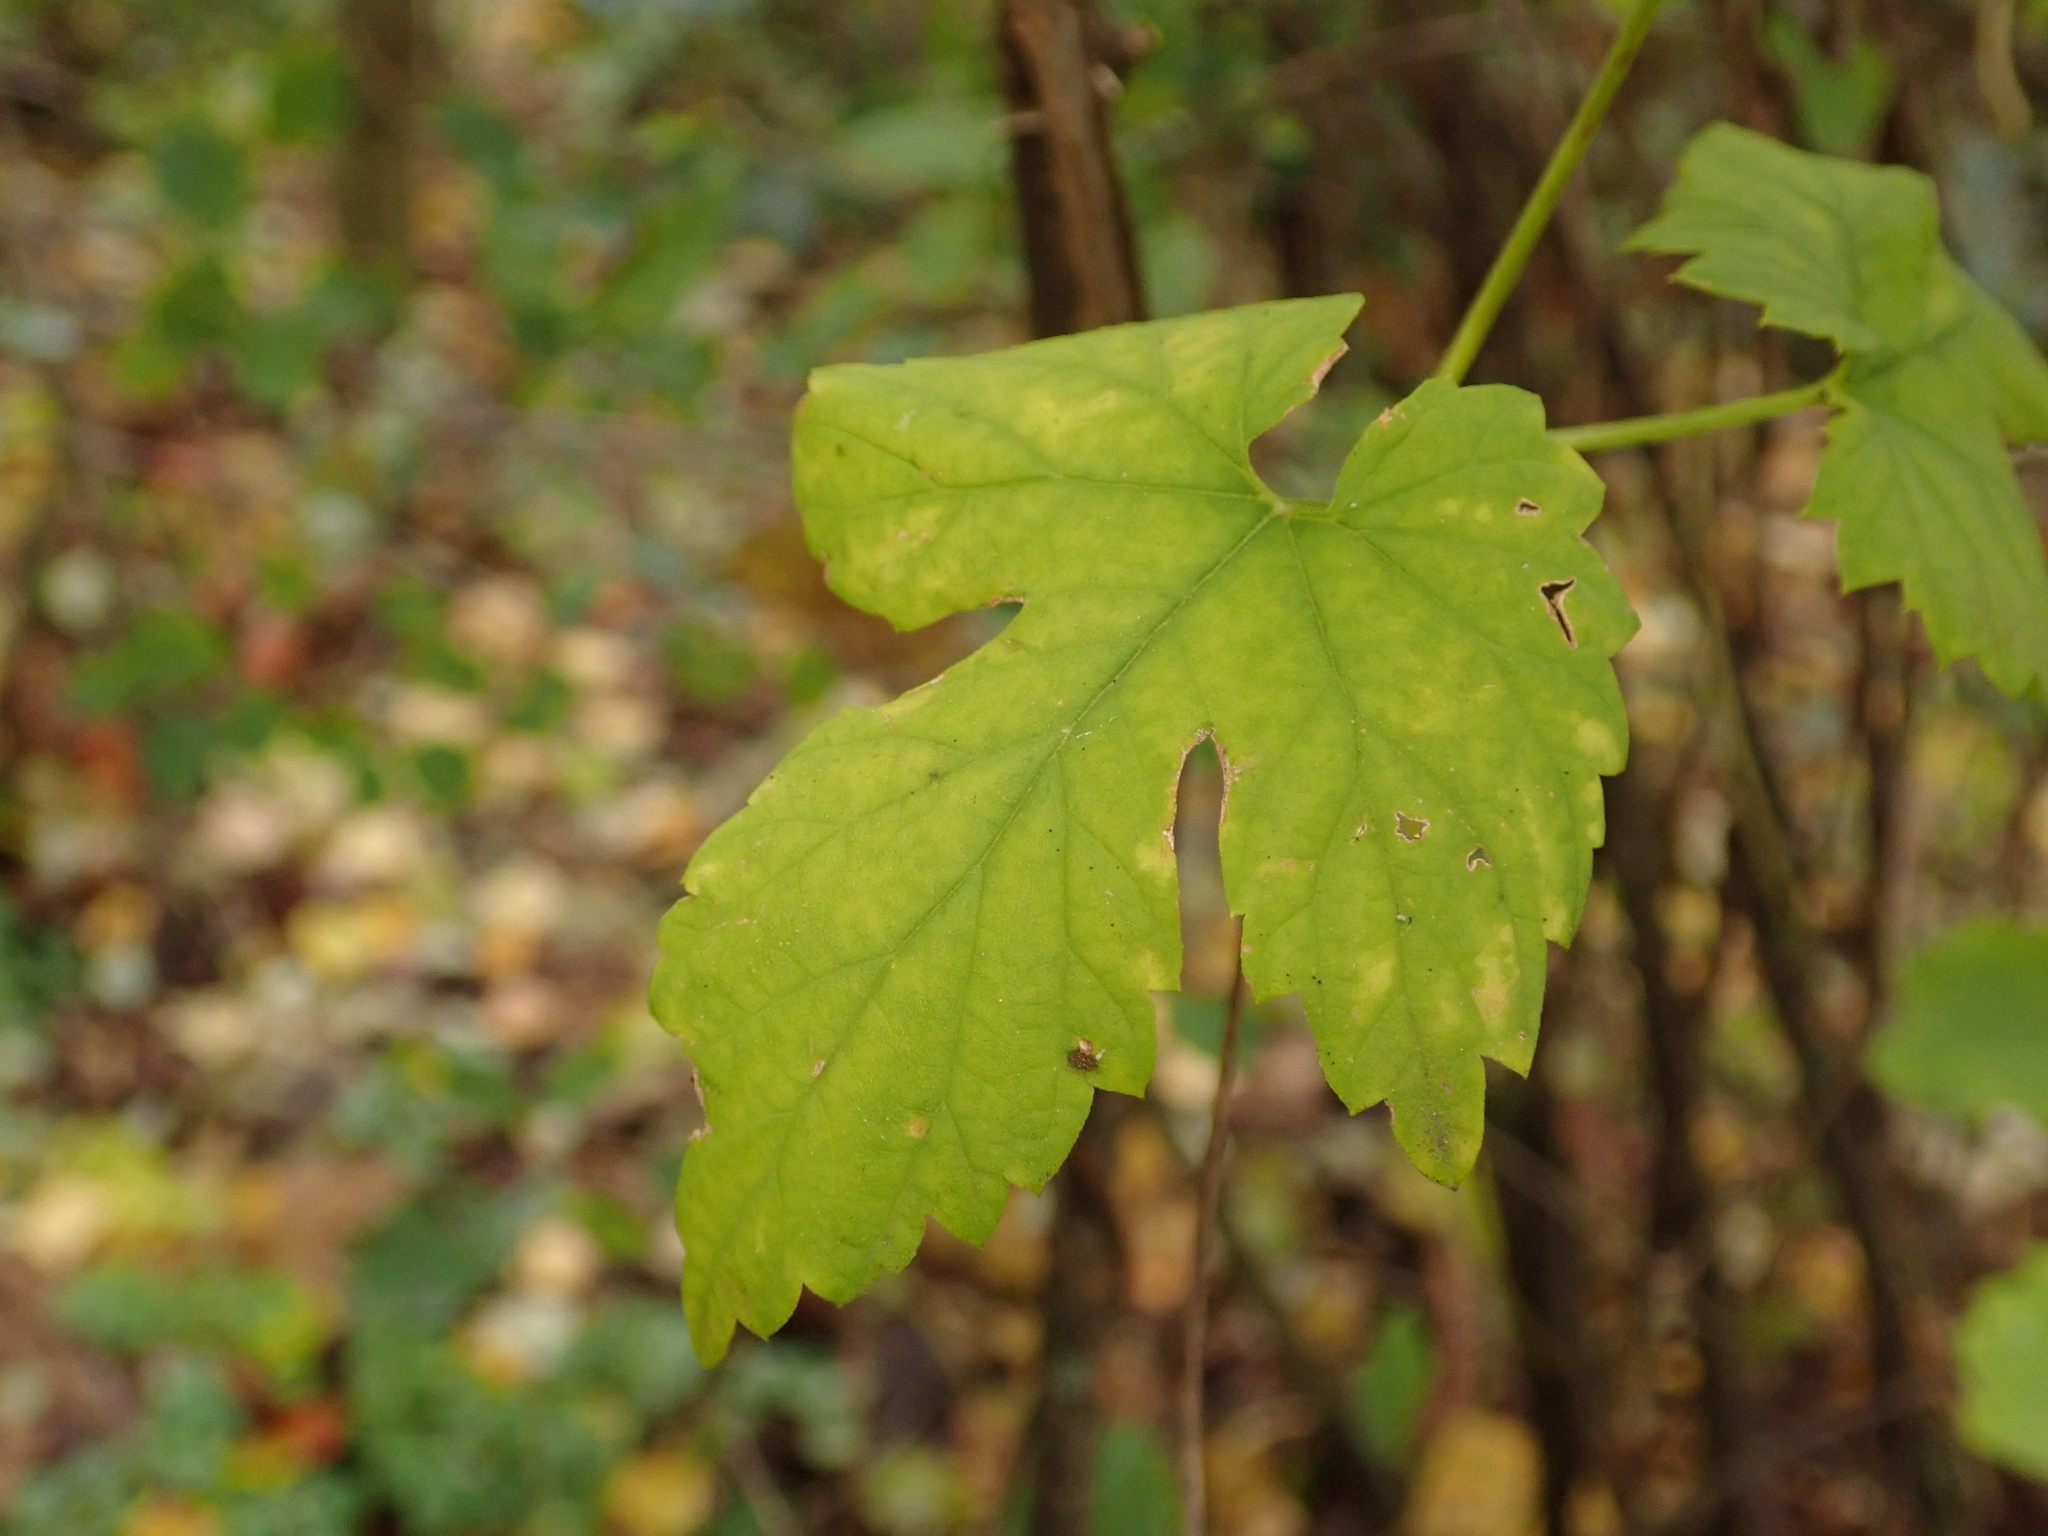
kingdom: Plantae
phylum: Tracheophyta
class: Magnoliopsida
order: Rosales
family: Cannabaceae
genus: Humulus
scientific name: Humulus lupulus
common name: Hop
